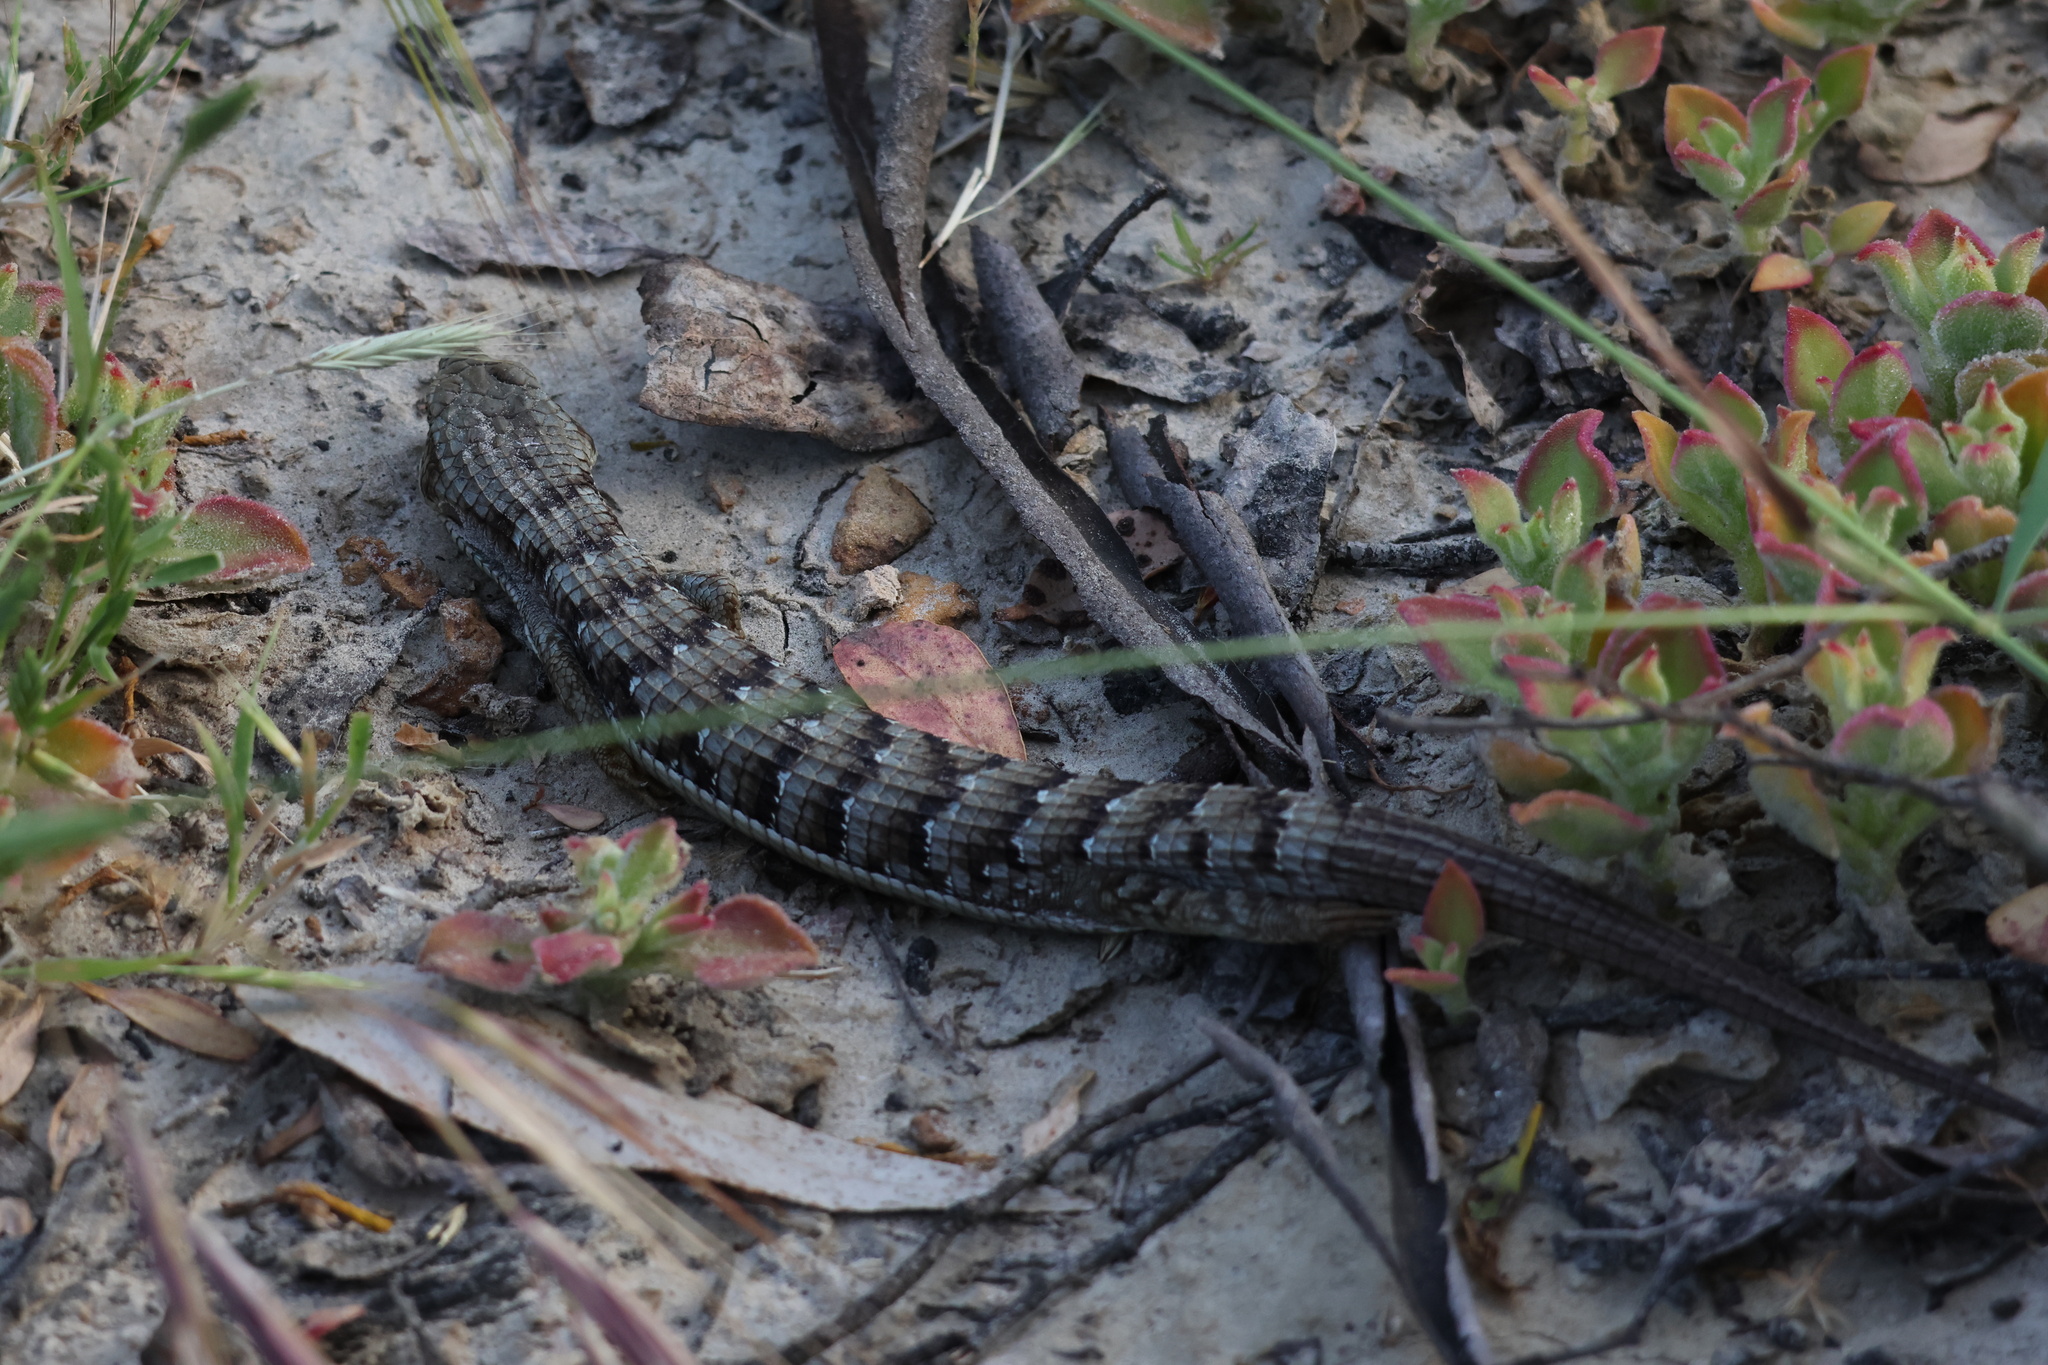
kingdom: Animalia
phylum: Chordata
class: Squamata
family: Anguidae
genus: Elgaria
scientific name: Elgaria multicarinata
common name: Southern alligator lizard
